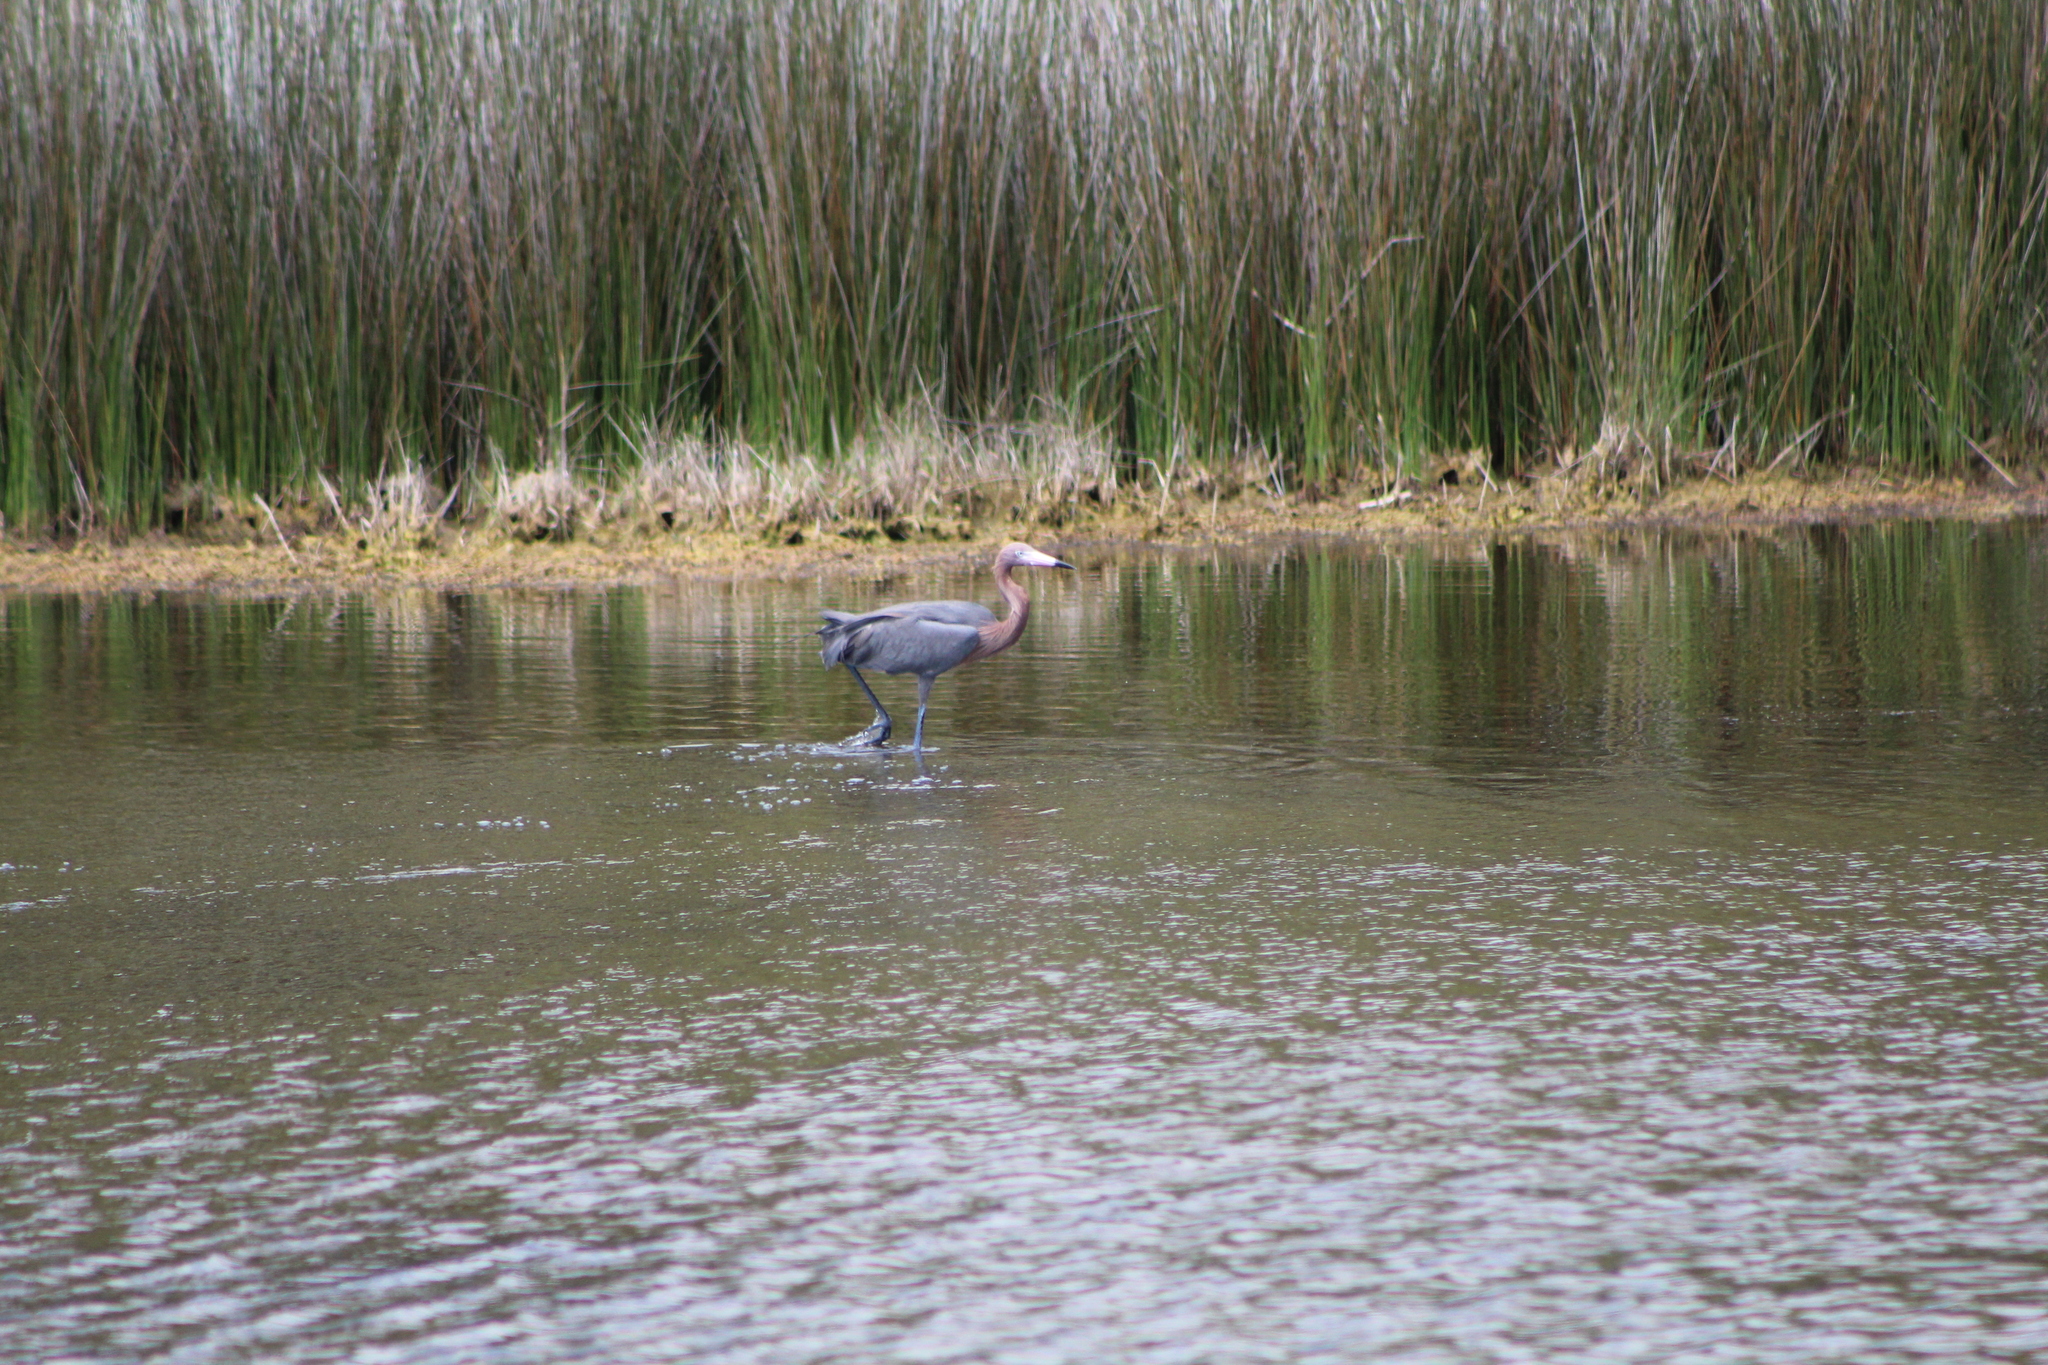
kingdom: Animalia
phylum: Chordata
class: Aves
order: Pelecaniformes
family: Ardeidae
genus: Egretta
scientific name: Egretta rufescens
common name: Reddish egret
